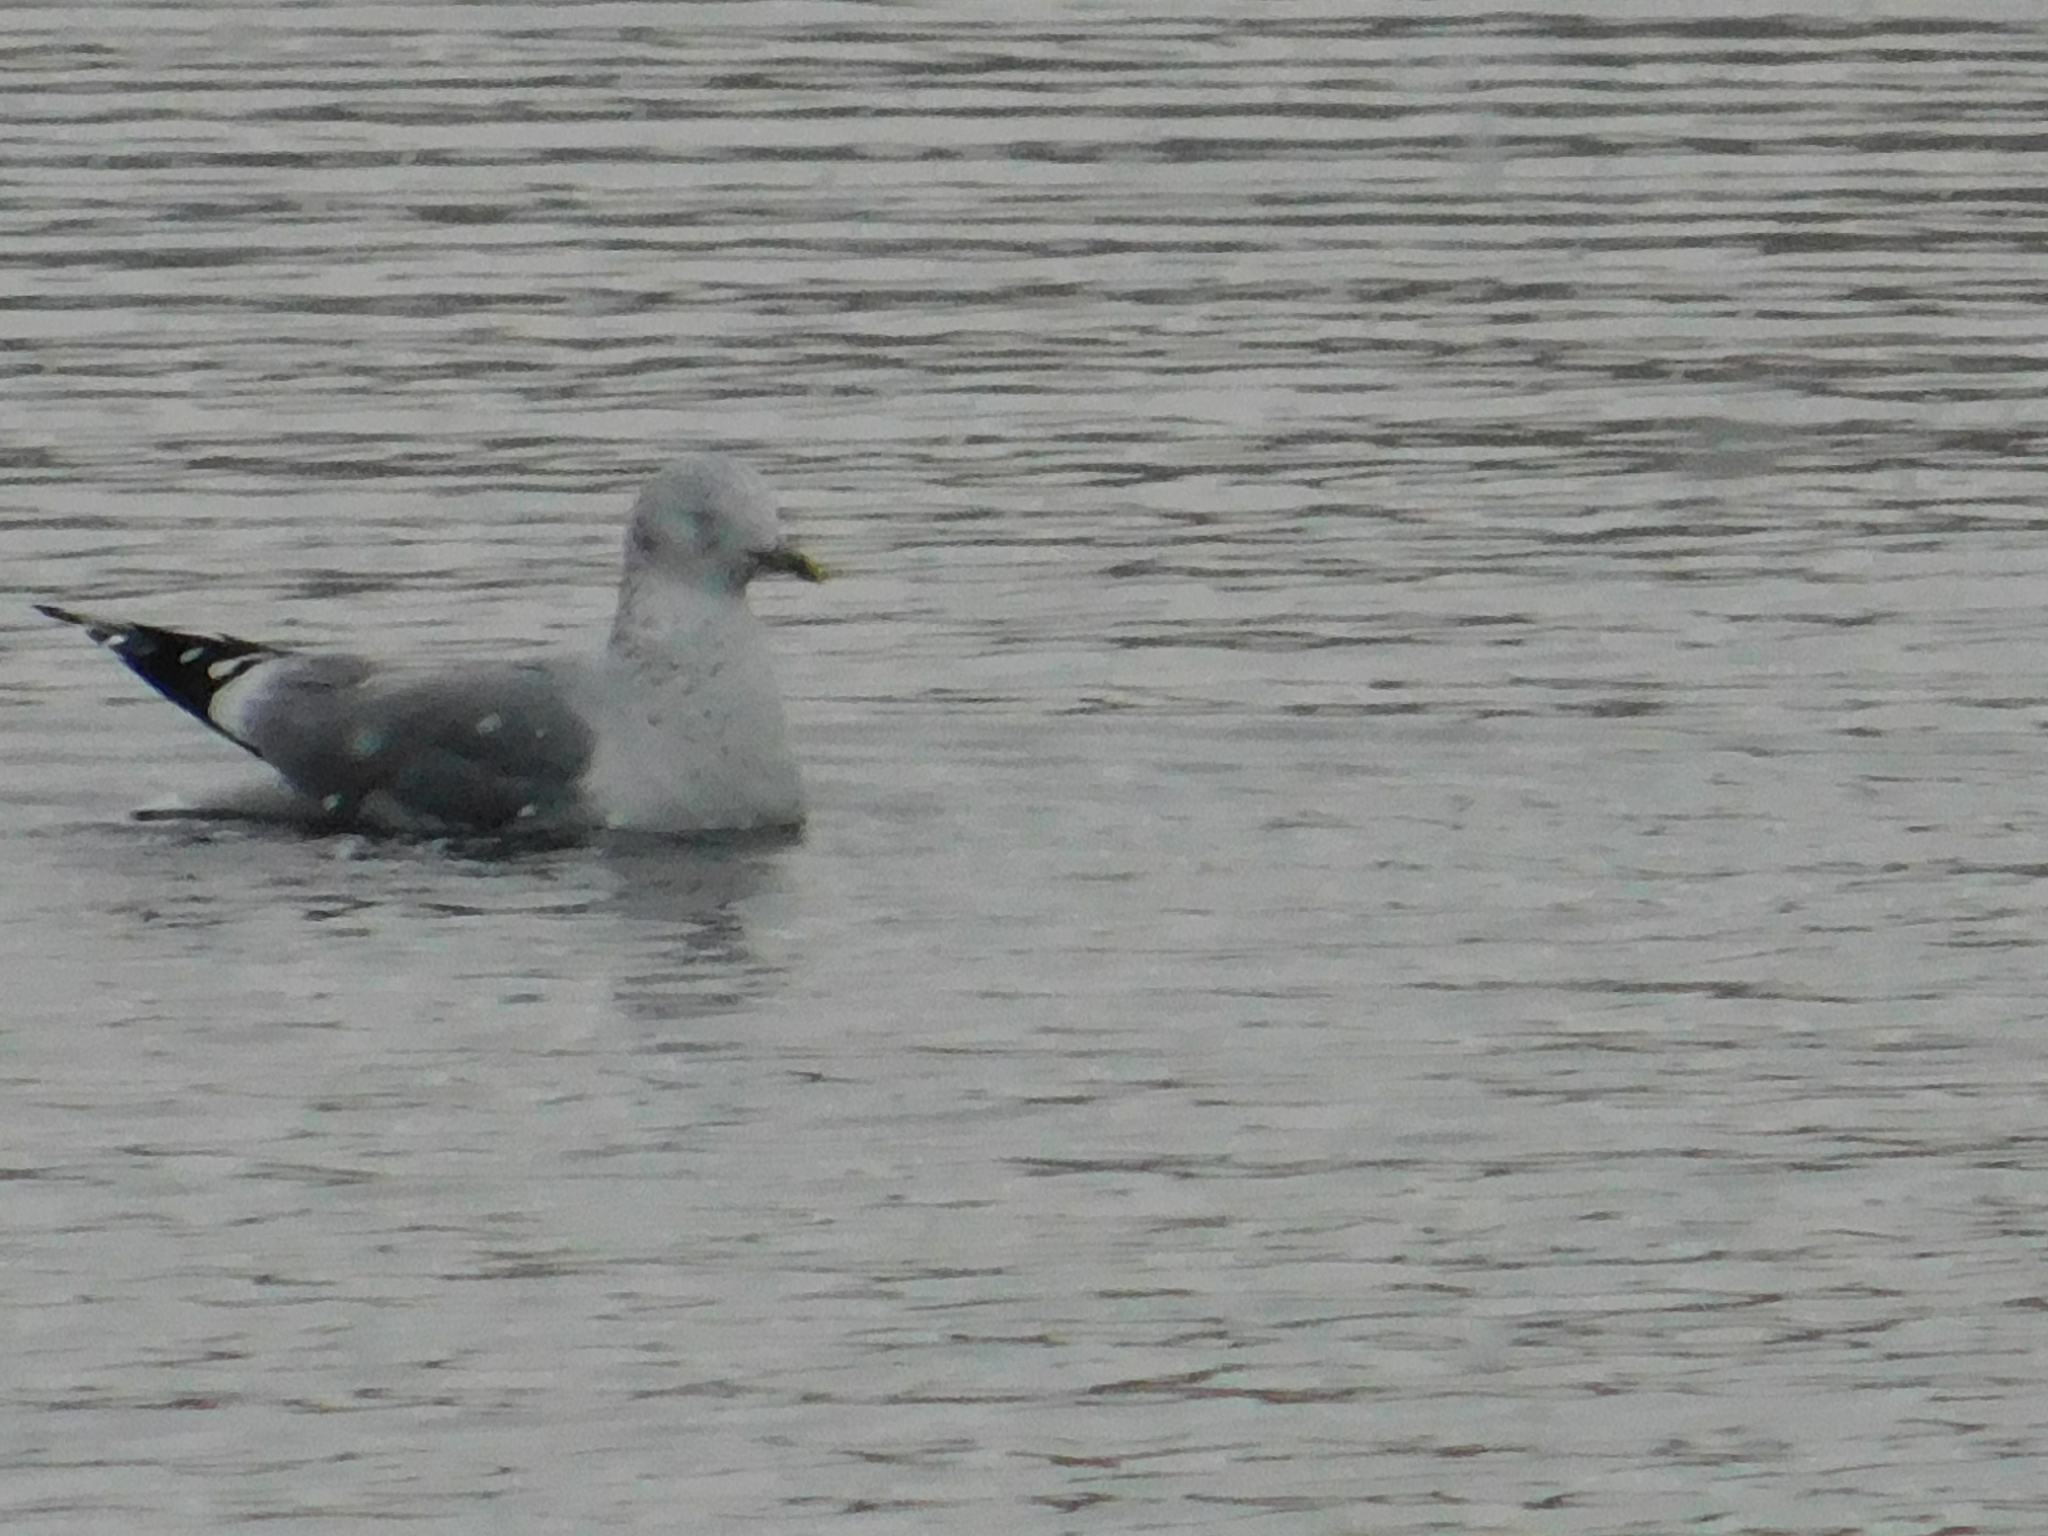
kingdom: Animalia
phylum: Chordata
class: Aves
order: Charadriiformes
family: Laridae
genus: Larus
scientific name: Larus canus
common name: Mew gull
